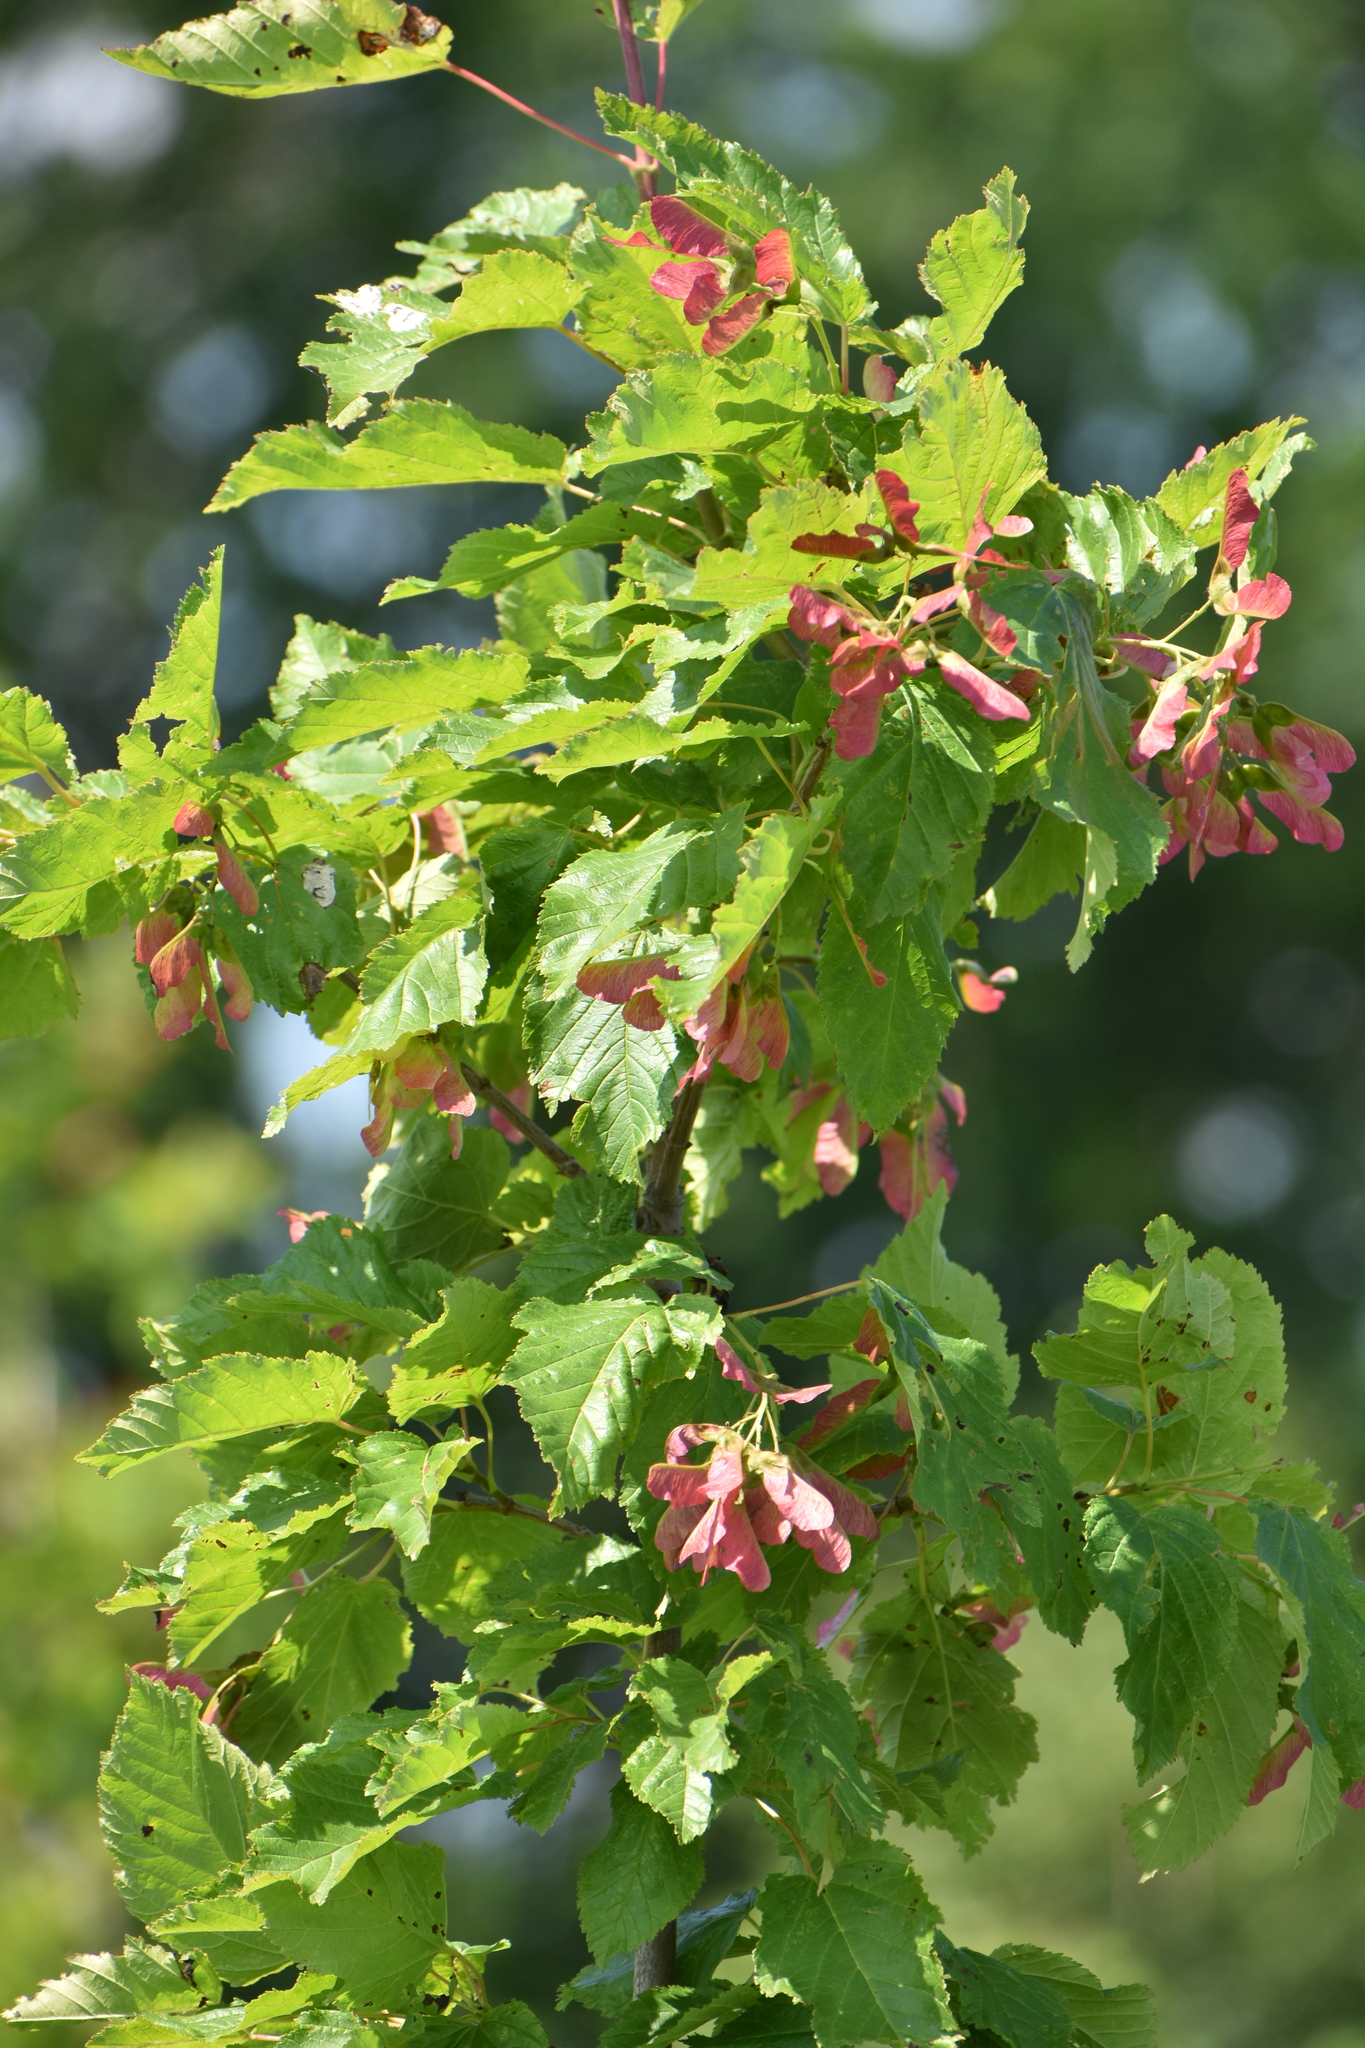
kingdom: Plantae
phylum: Tracheophyta
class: Magnoliopsida
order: Sapindales
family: Sapindaceae
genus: Acer
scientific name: Acer tataricum
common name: Tartar maple
